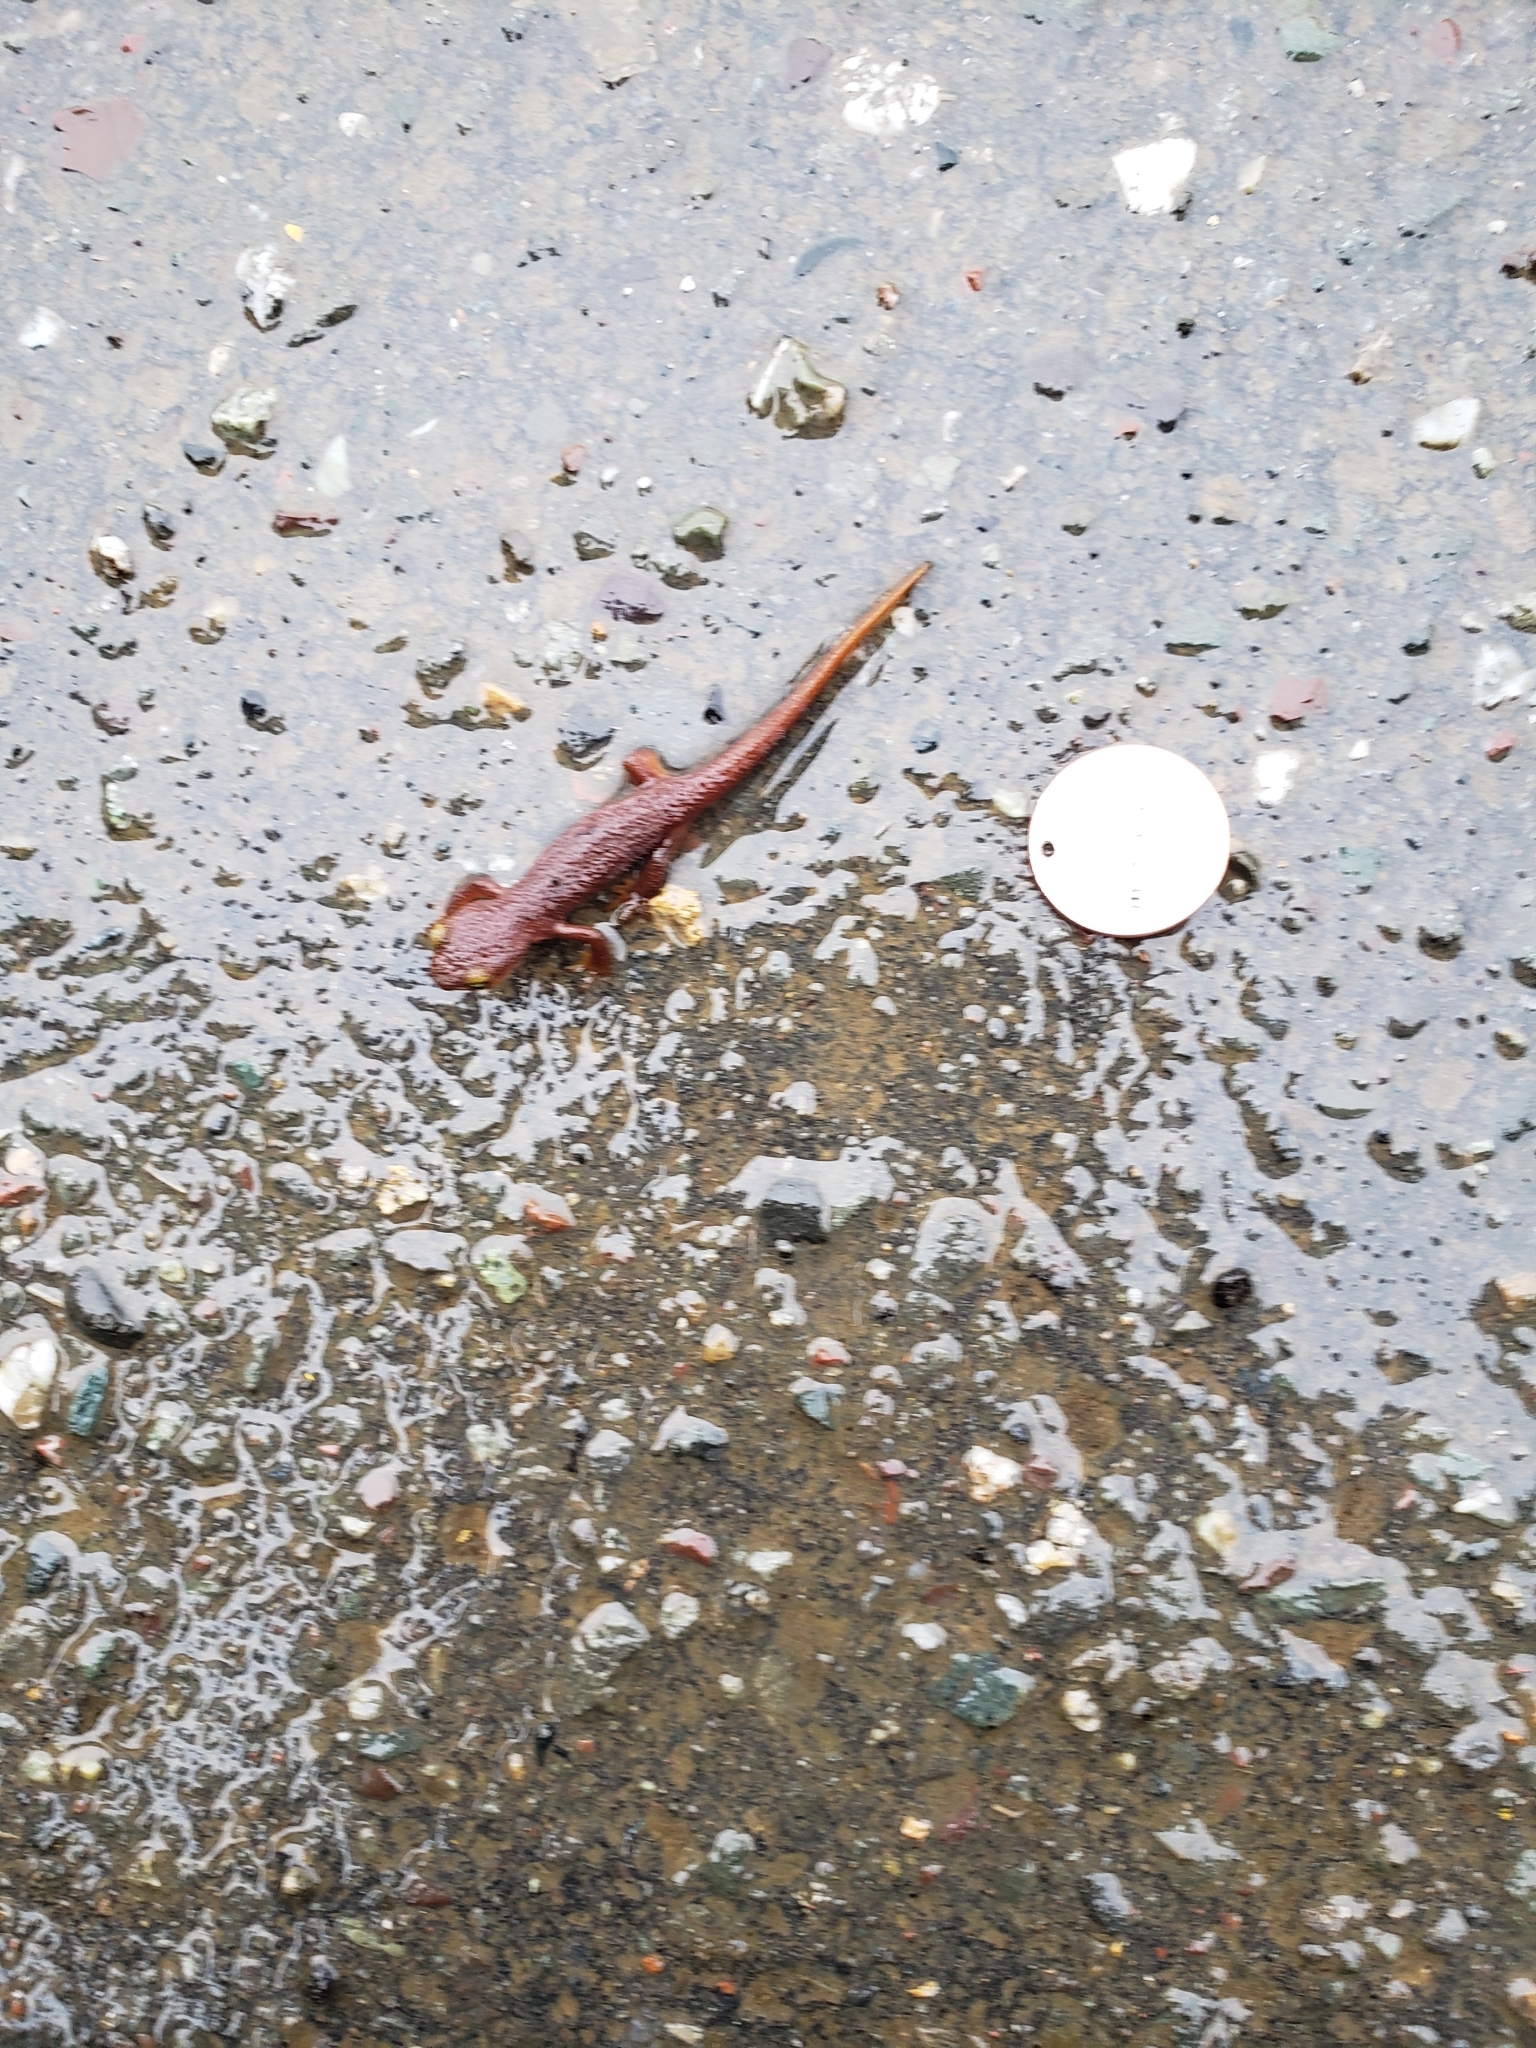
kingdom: Animalia
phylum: Chordata
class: Amphibia
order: Caudata
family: Salamandridae
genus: Taricha
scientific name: Taricha torosa
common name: California newt
